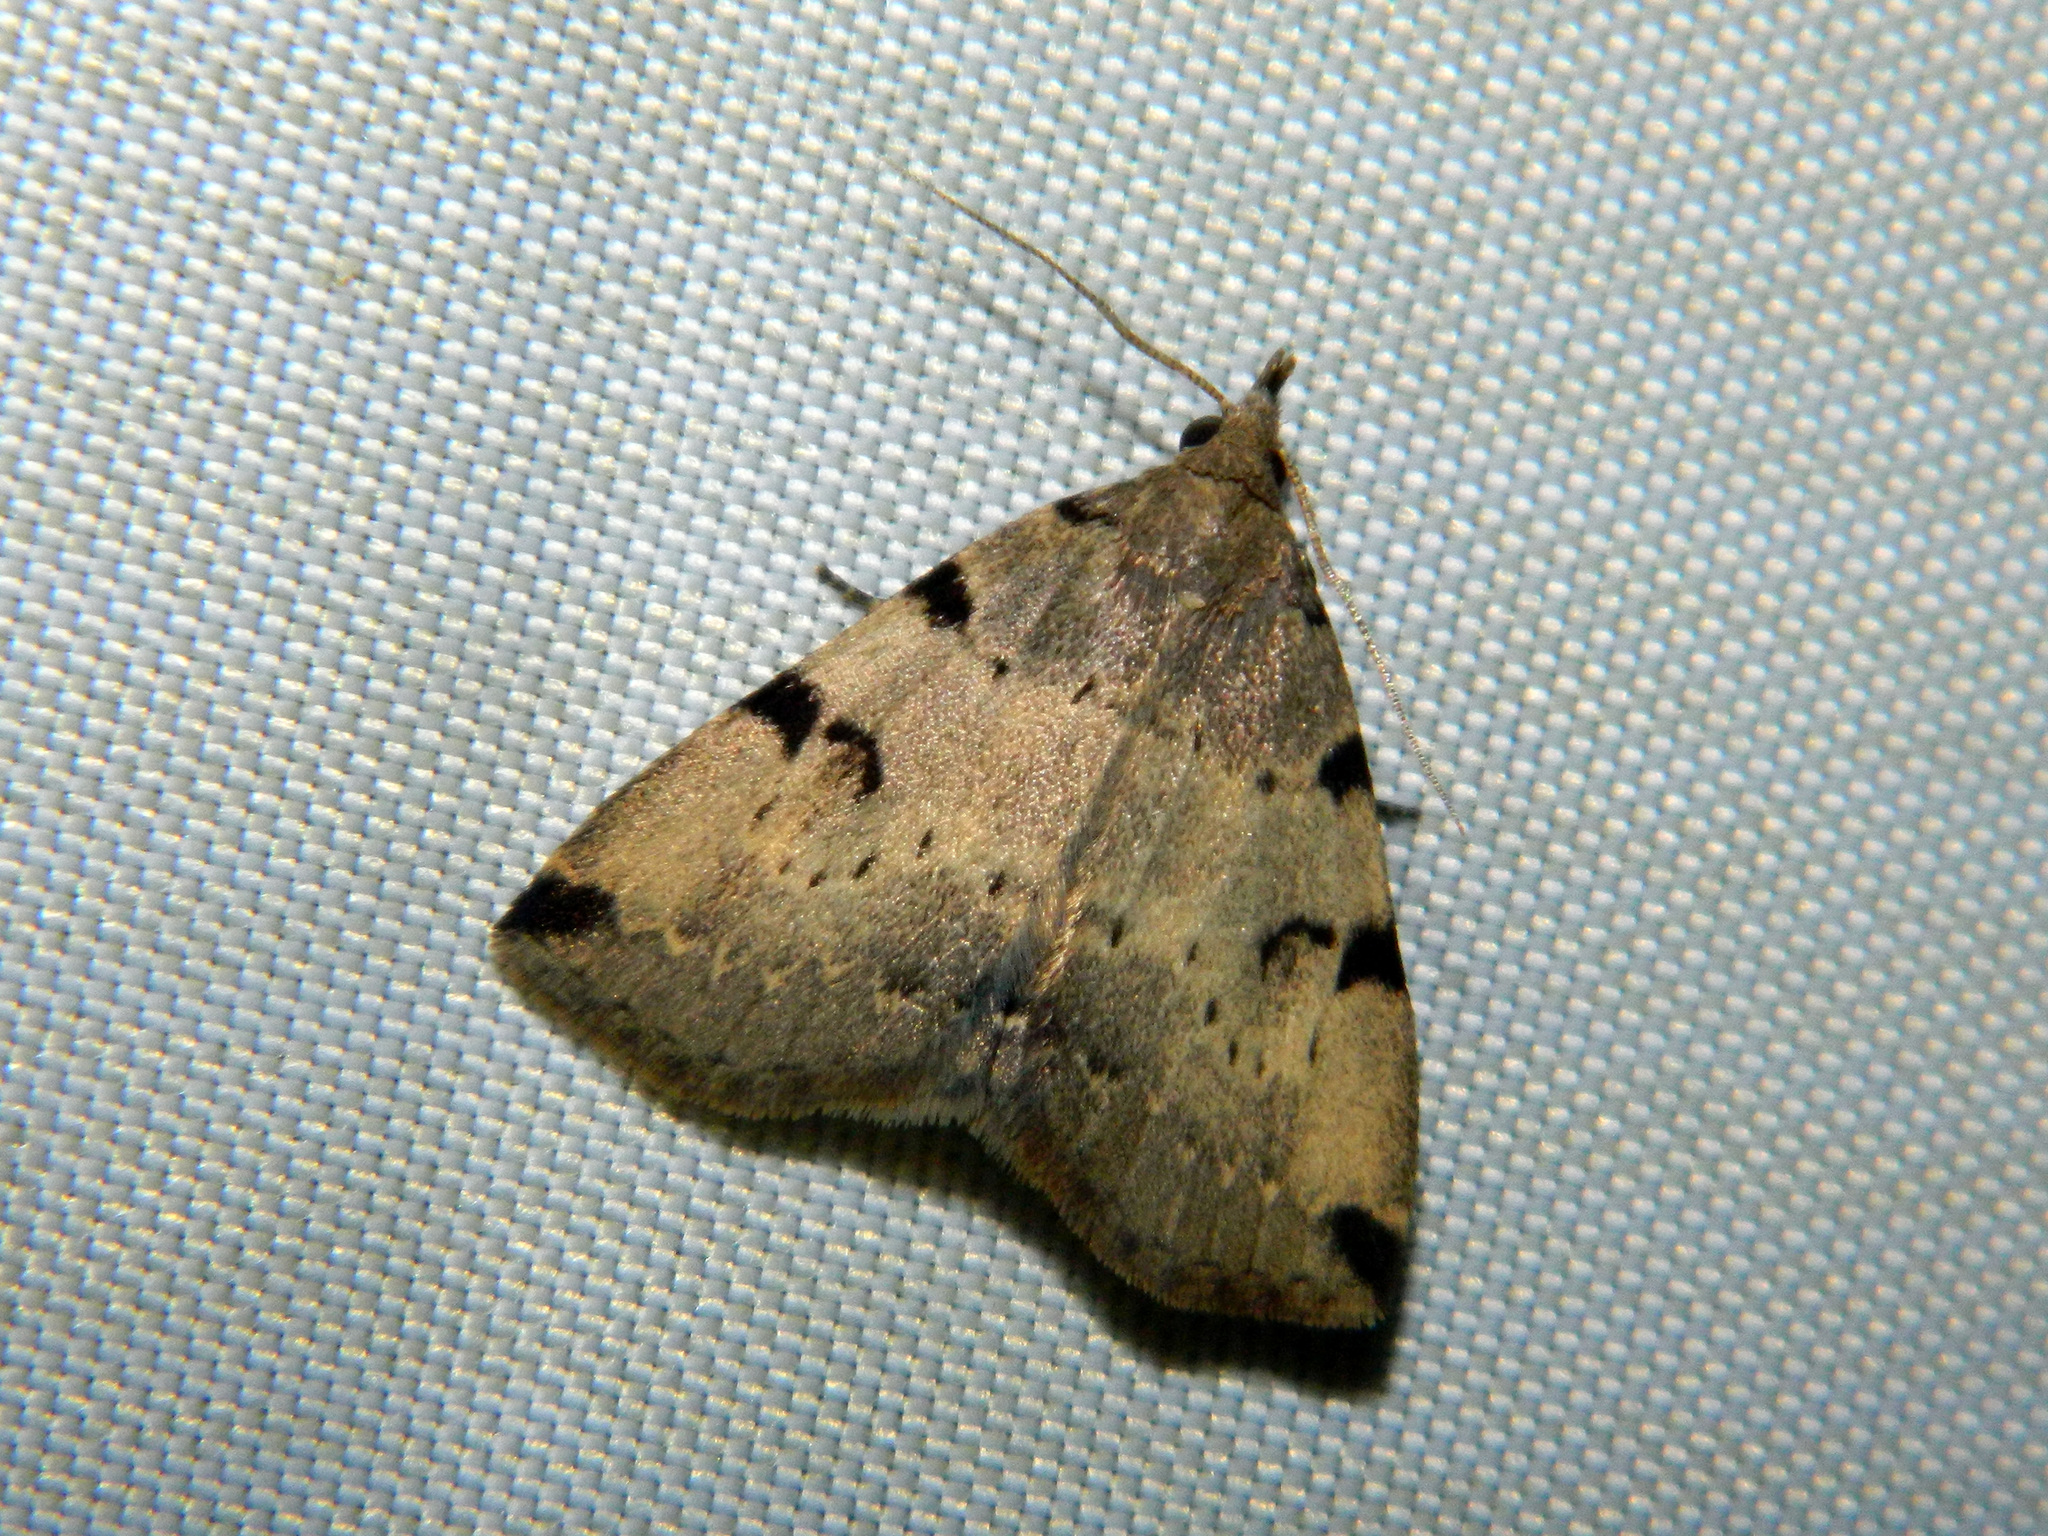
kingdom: Animalia
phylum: Arthropoda
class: Insecta
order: Lepidoptera
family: Erebidae
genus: Zanclognatha
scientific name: Zanclognatha lituralis
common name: Lettered fan-foot
